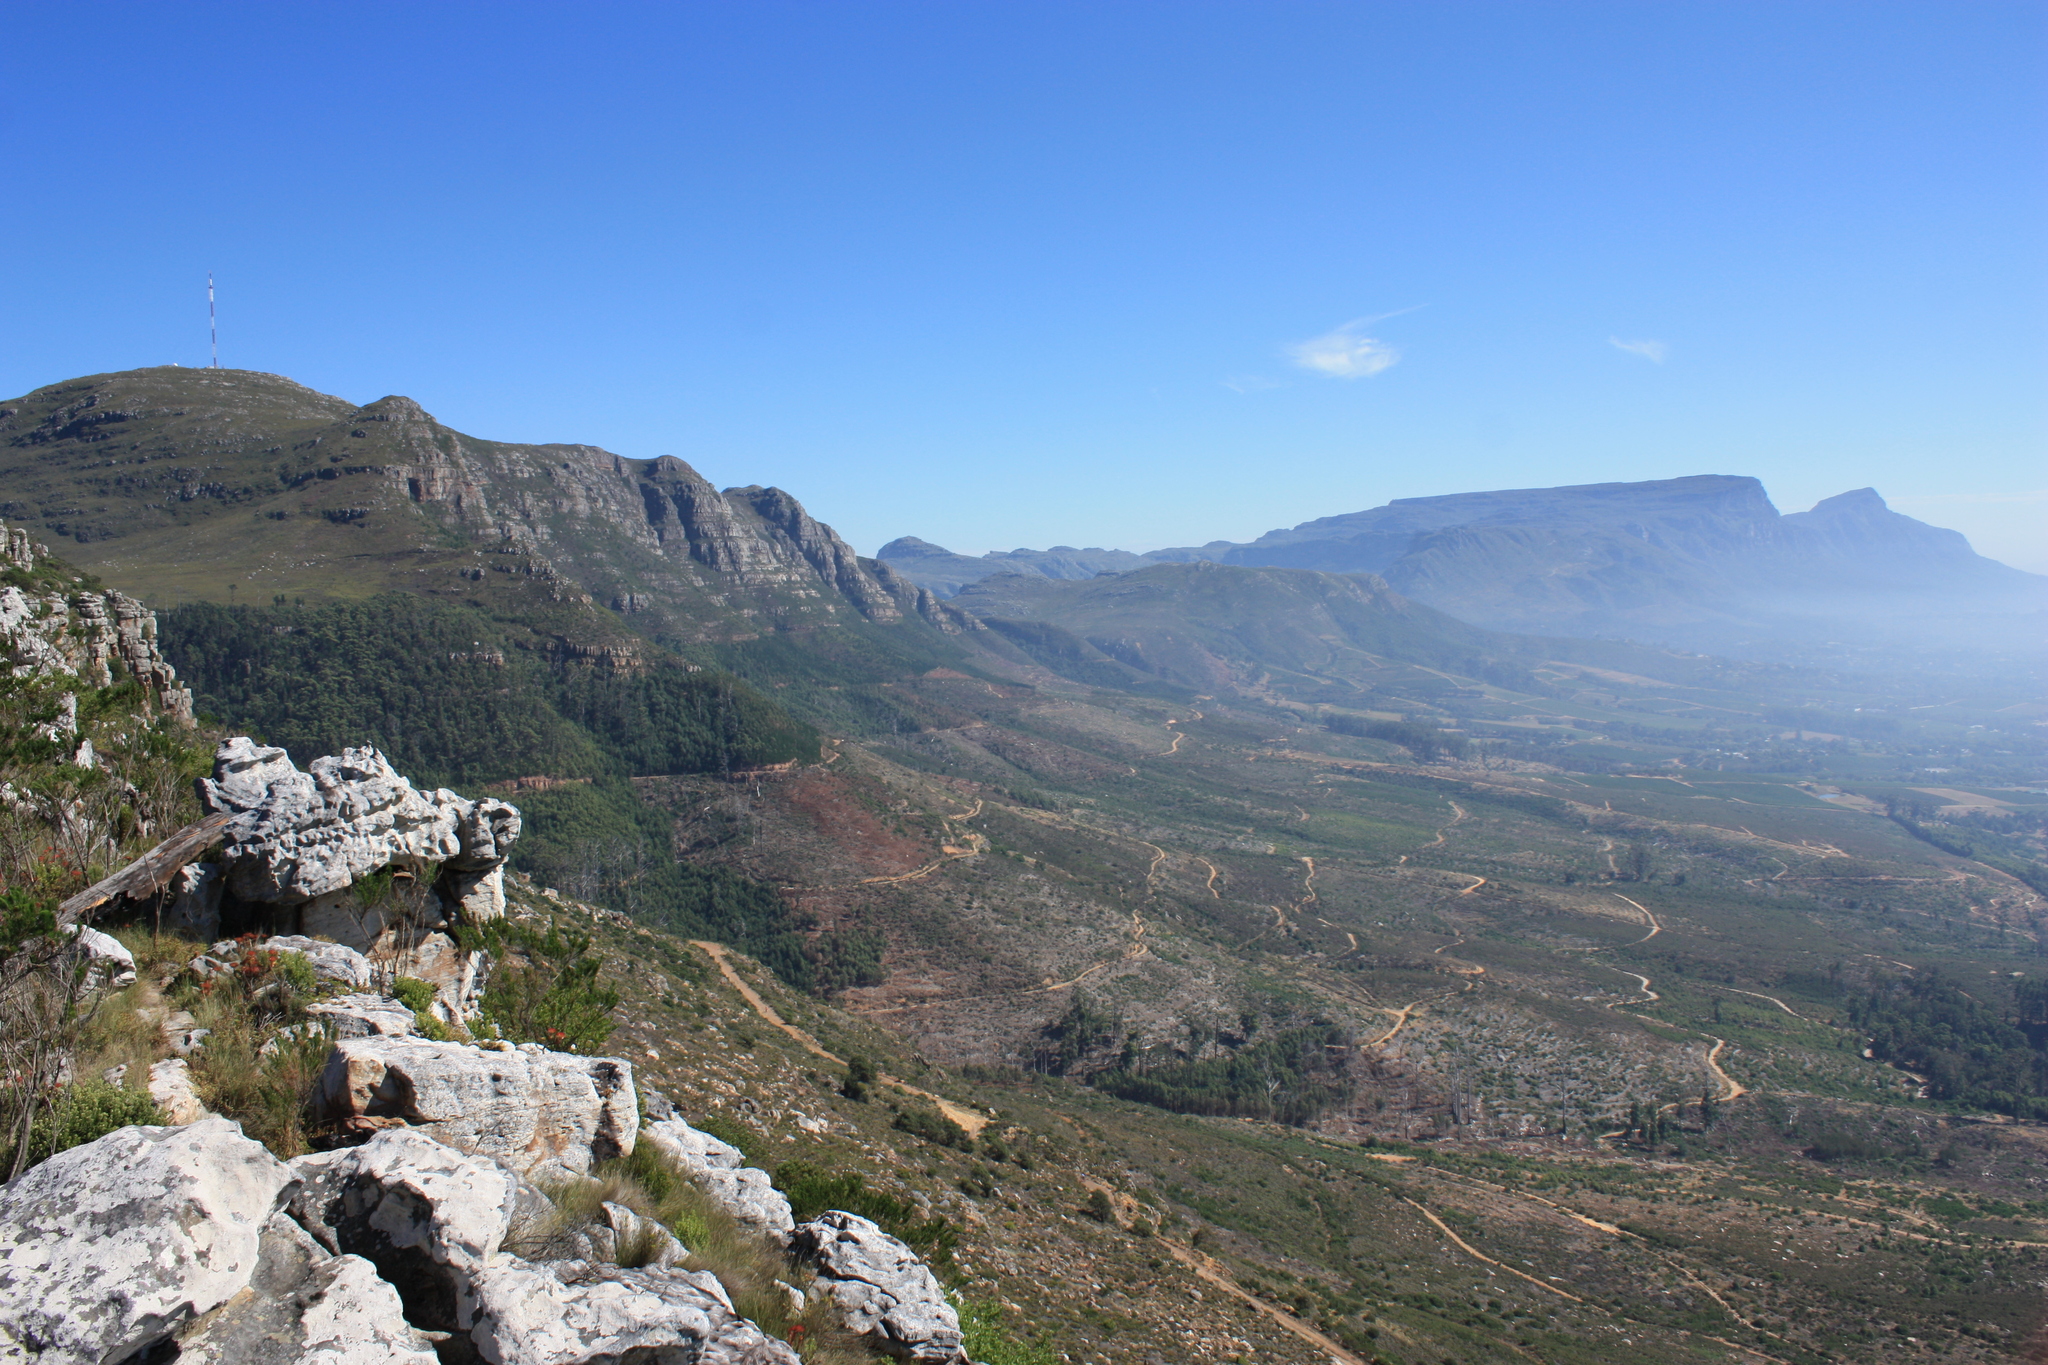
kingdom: Plantae
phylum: Tracheophyta
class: Magnoliopsida
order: Fabales
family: Fabaceae
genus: Psoralea
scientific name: Psoralea pinnata
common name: African scurfpea
